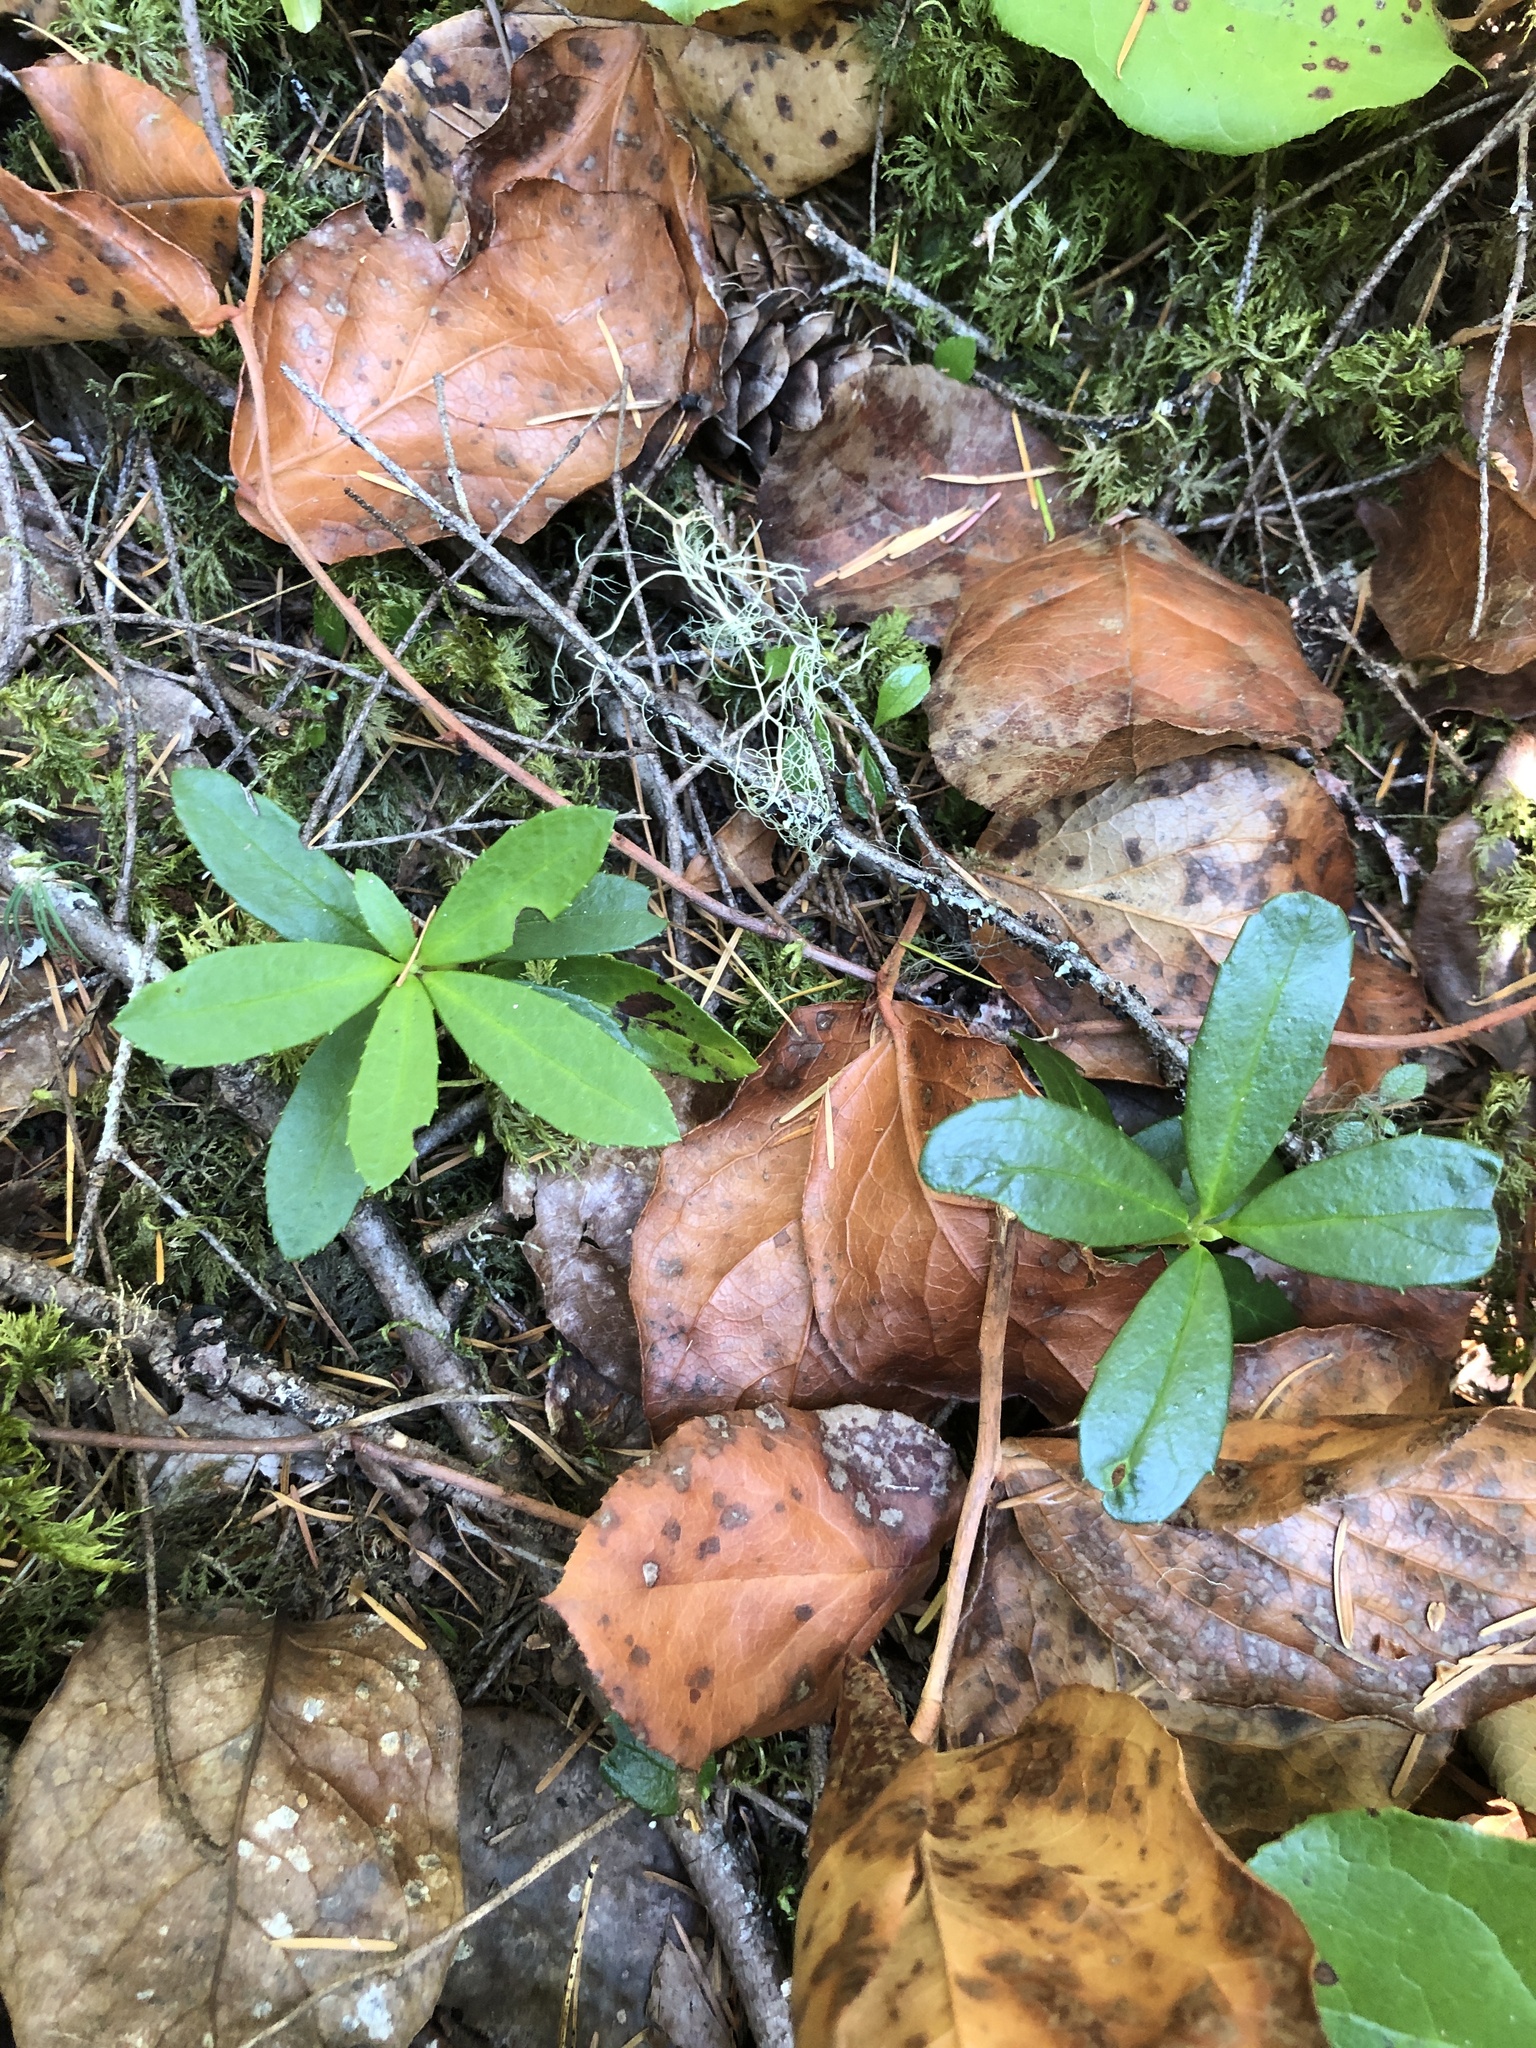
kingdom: Plantae
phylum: Tracheophyta
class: Magnoliopsida
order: Ericales
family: Ericaceae
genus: Chimaphila
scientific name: Chimaphila umbellata
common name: Pipsissewa
